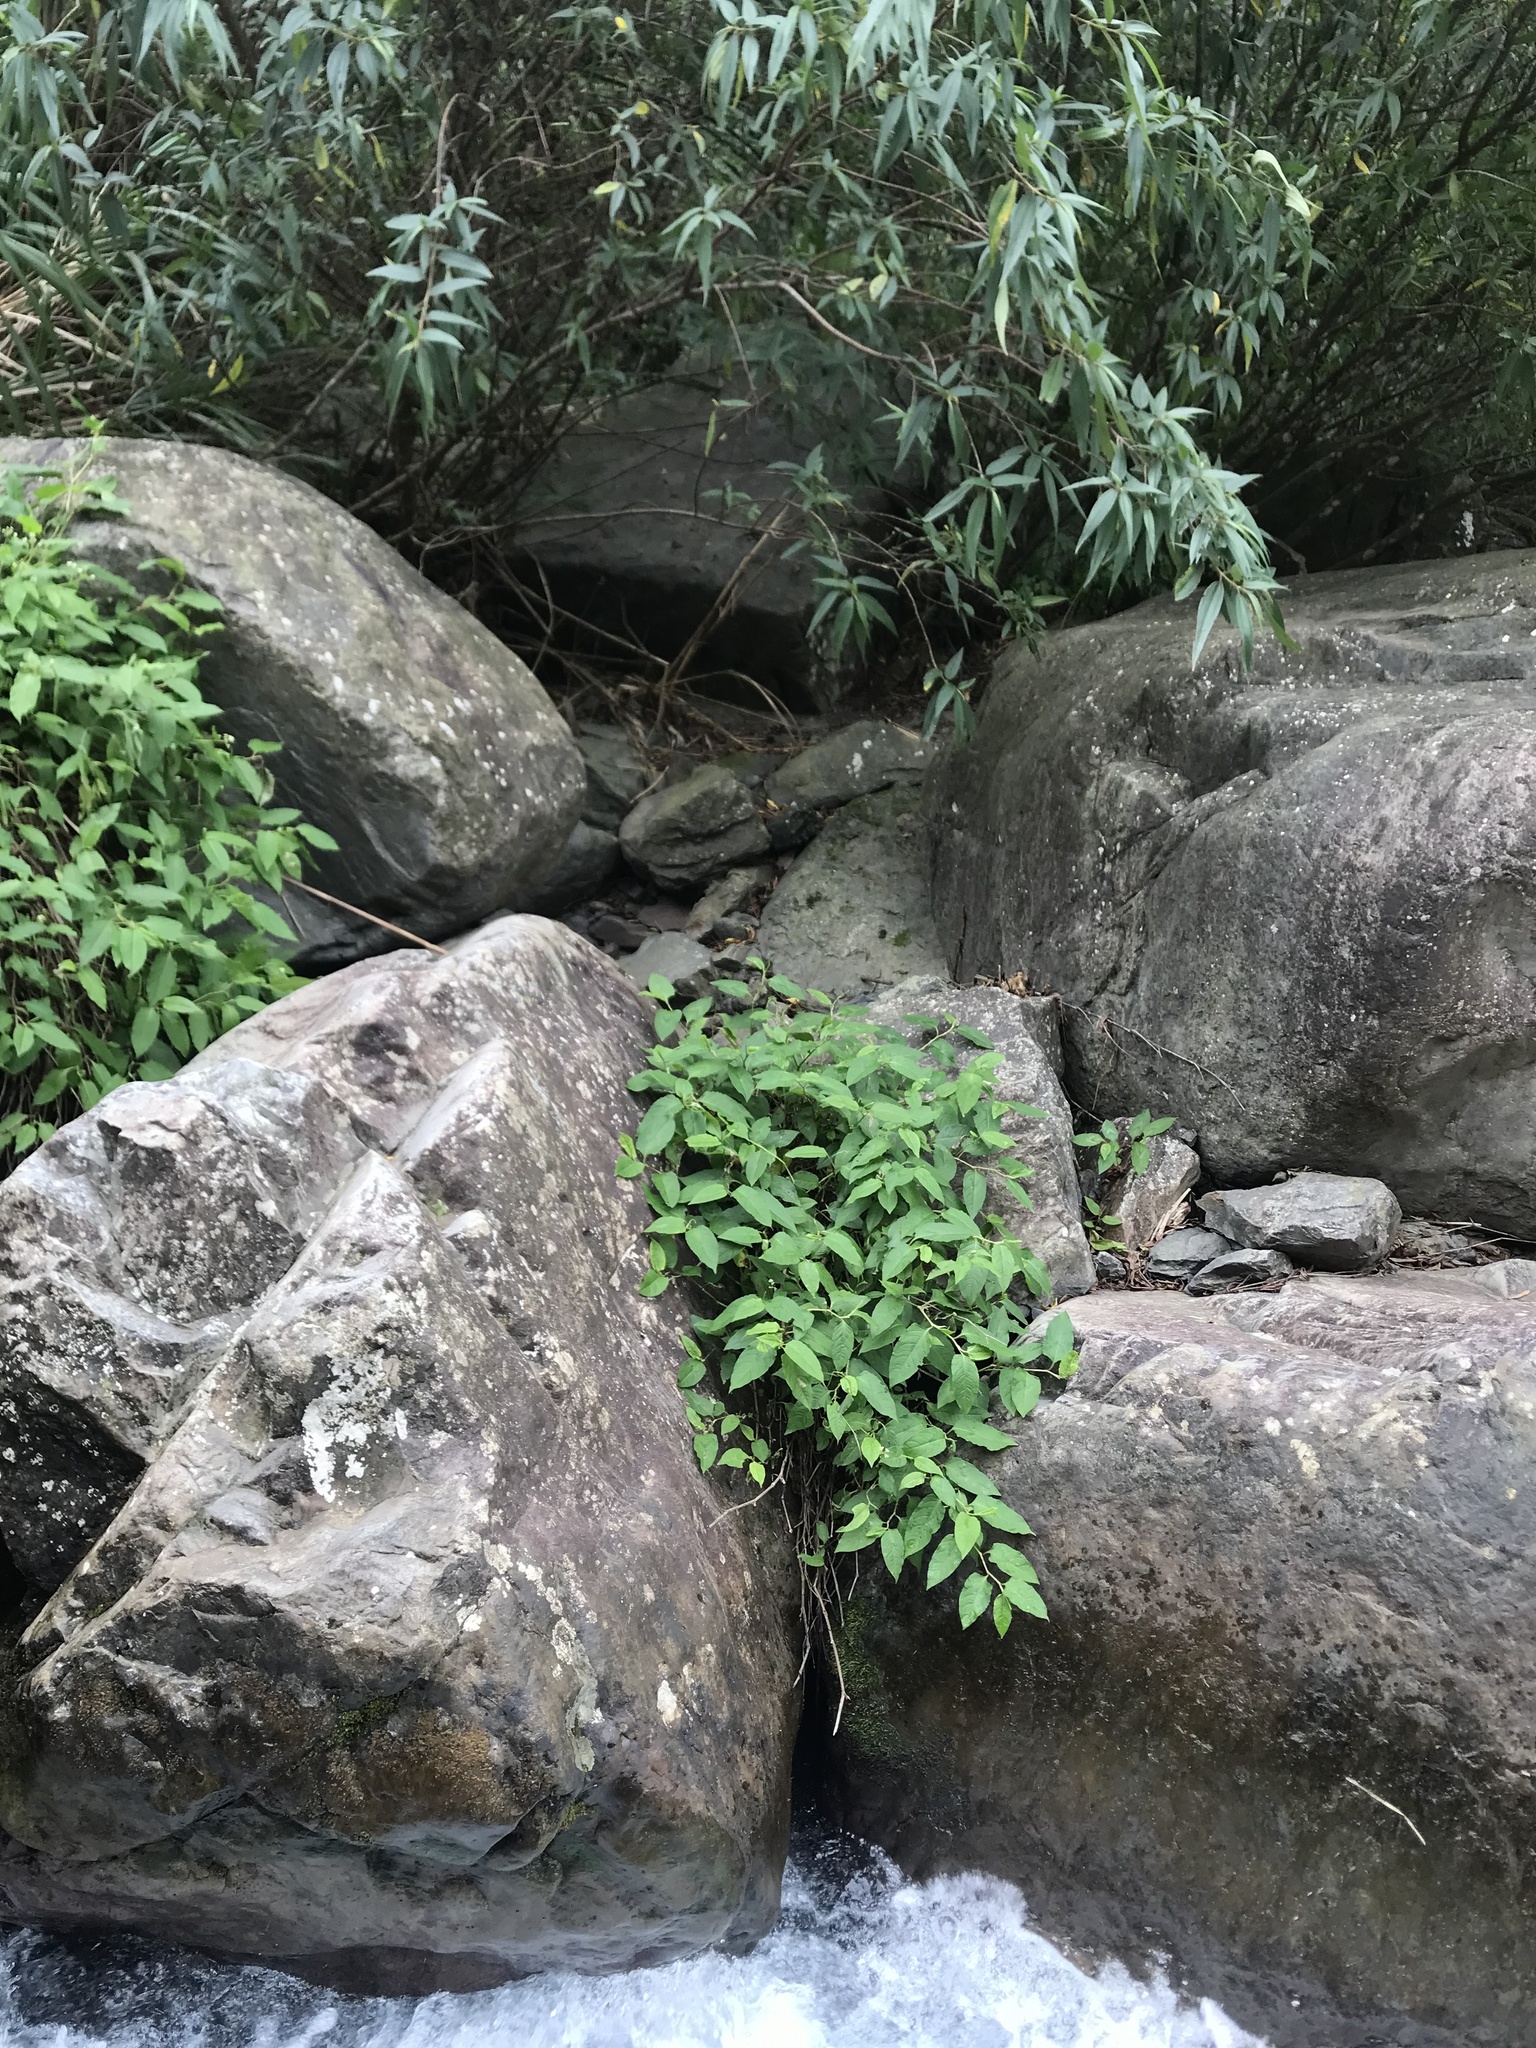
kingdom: Plantae
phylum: Tracheophyta
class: Magnoliopsida
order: Caryophyllales
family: Polygonaceae
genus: Persicaria
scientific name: Persicaria chinensis
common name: Chinese knotweed
